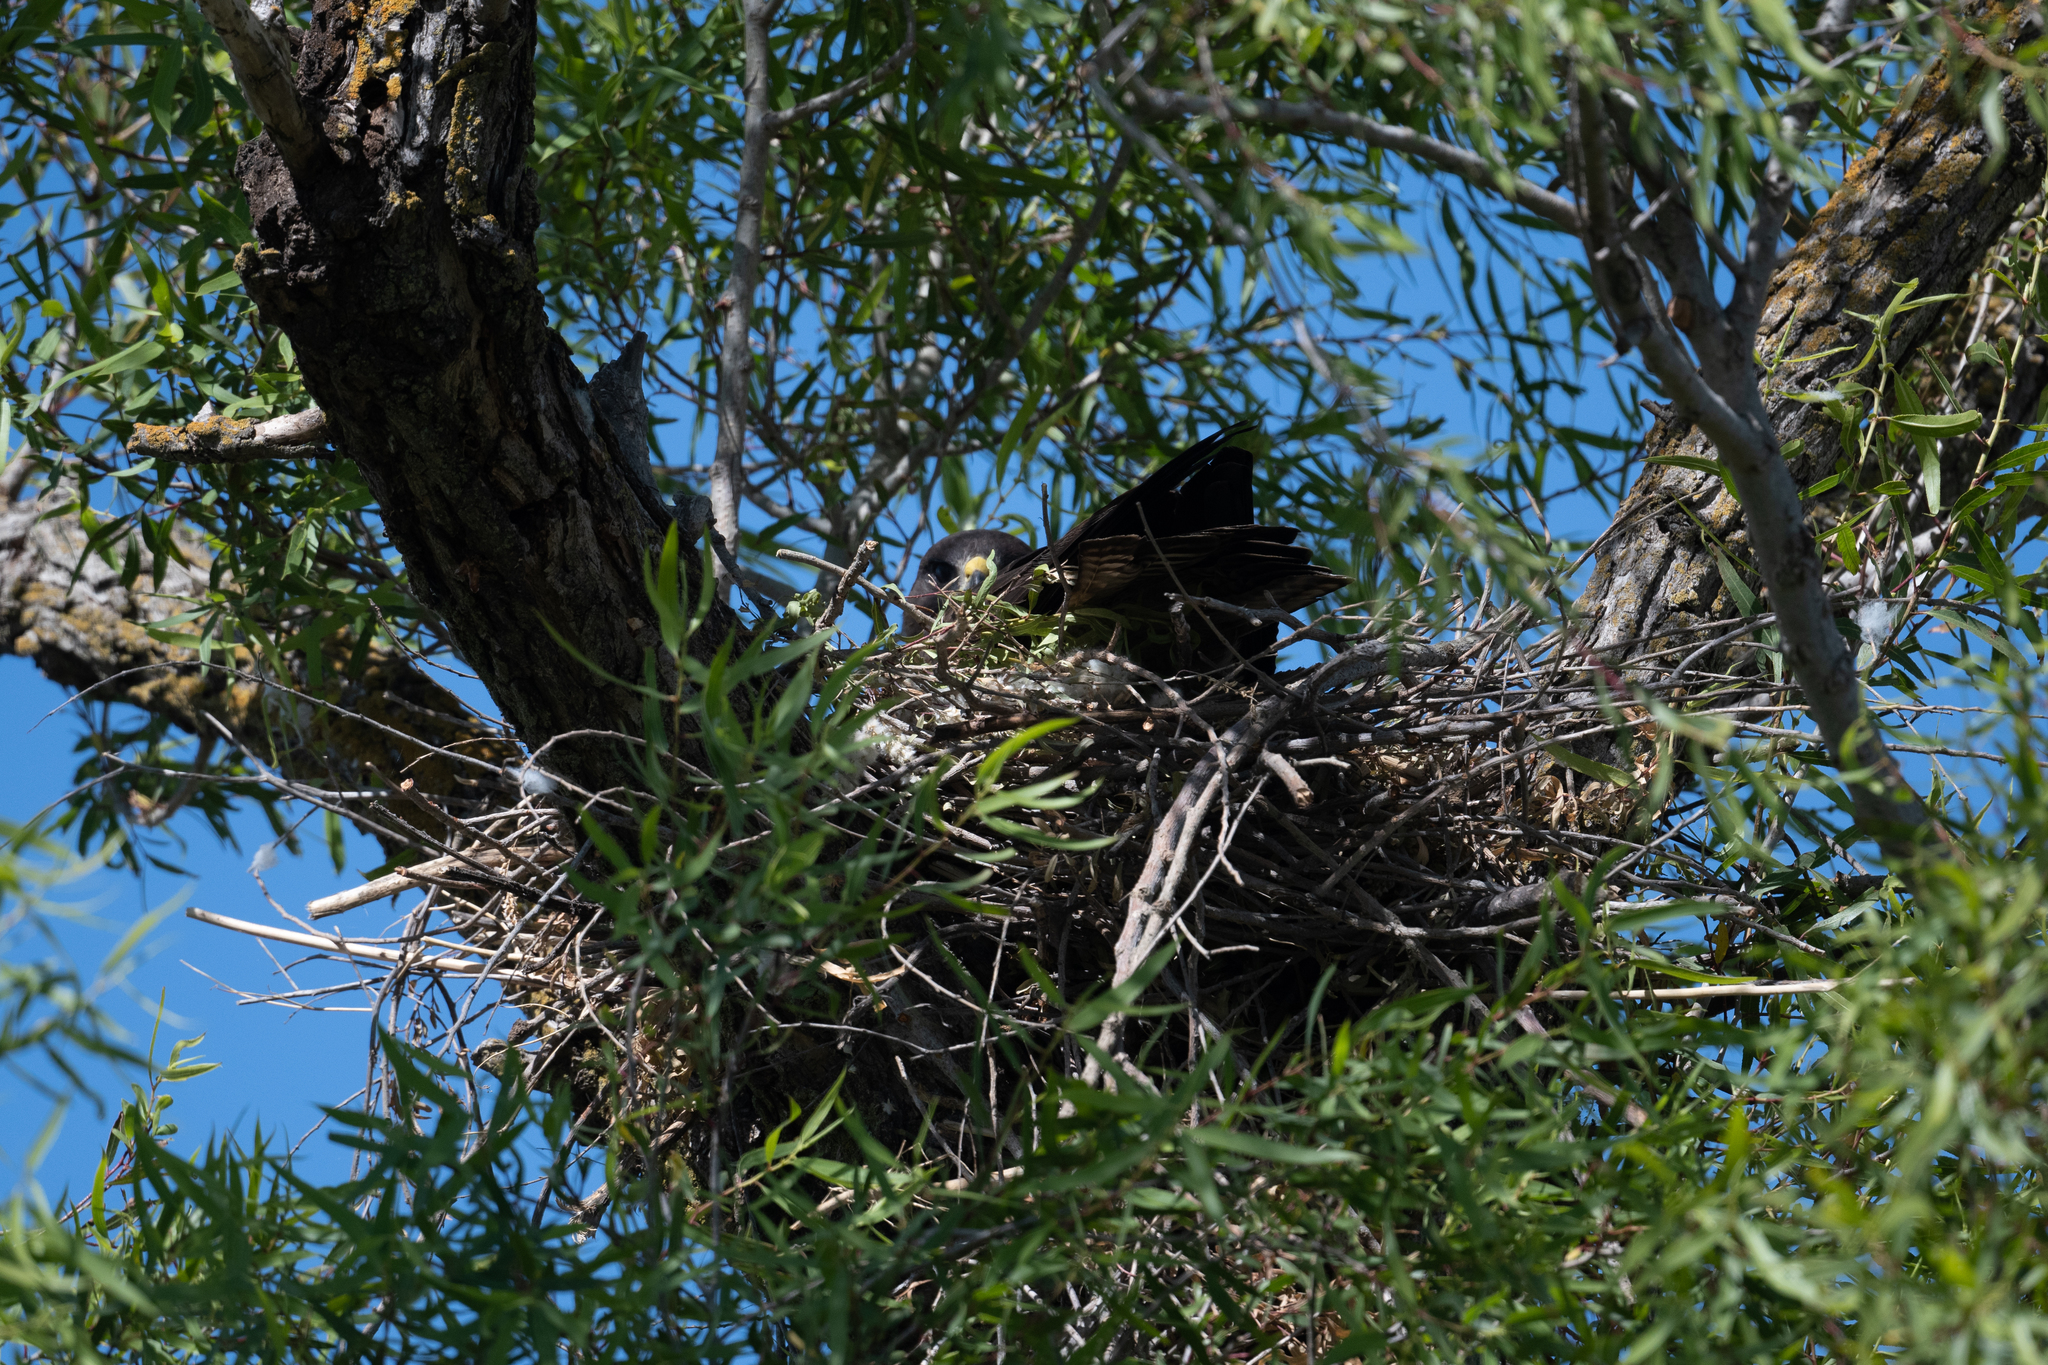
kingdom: Animalia
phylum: Chordata
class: Aves
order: Accipitriformes
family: Accipitridae
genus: Buteo
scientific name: Buteo swainsoni
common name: Swainson's hawk
